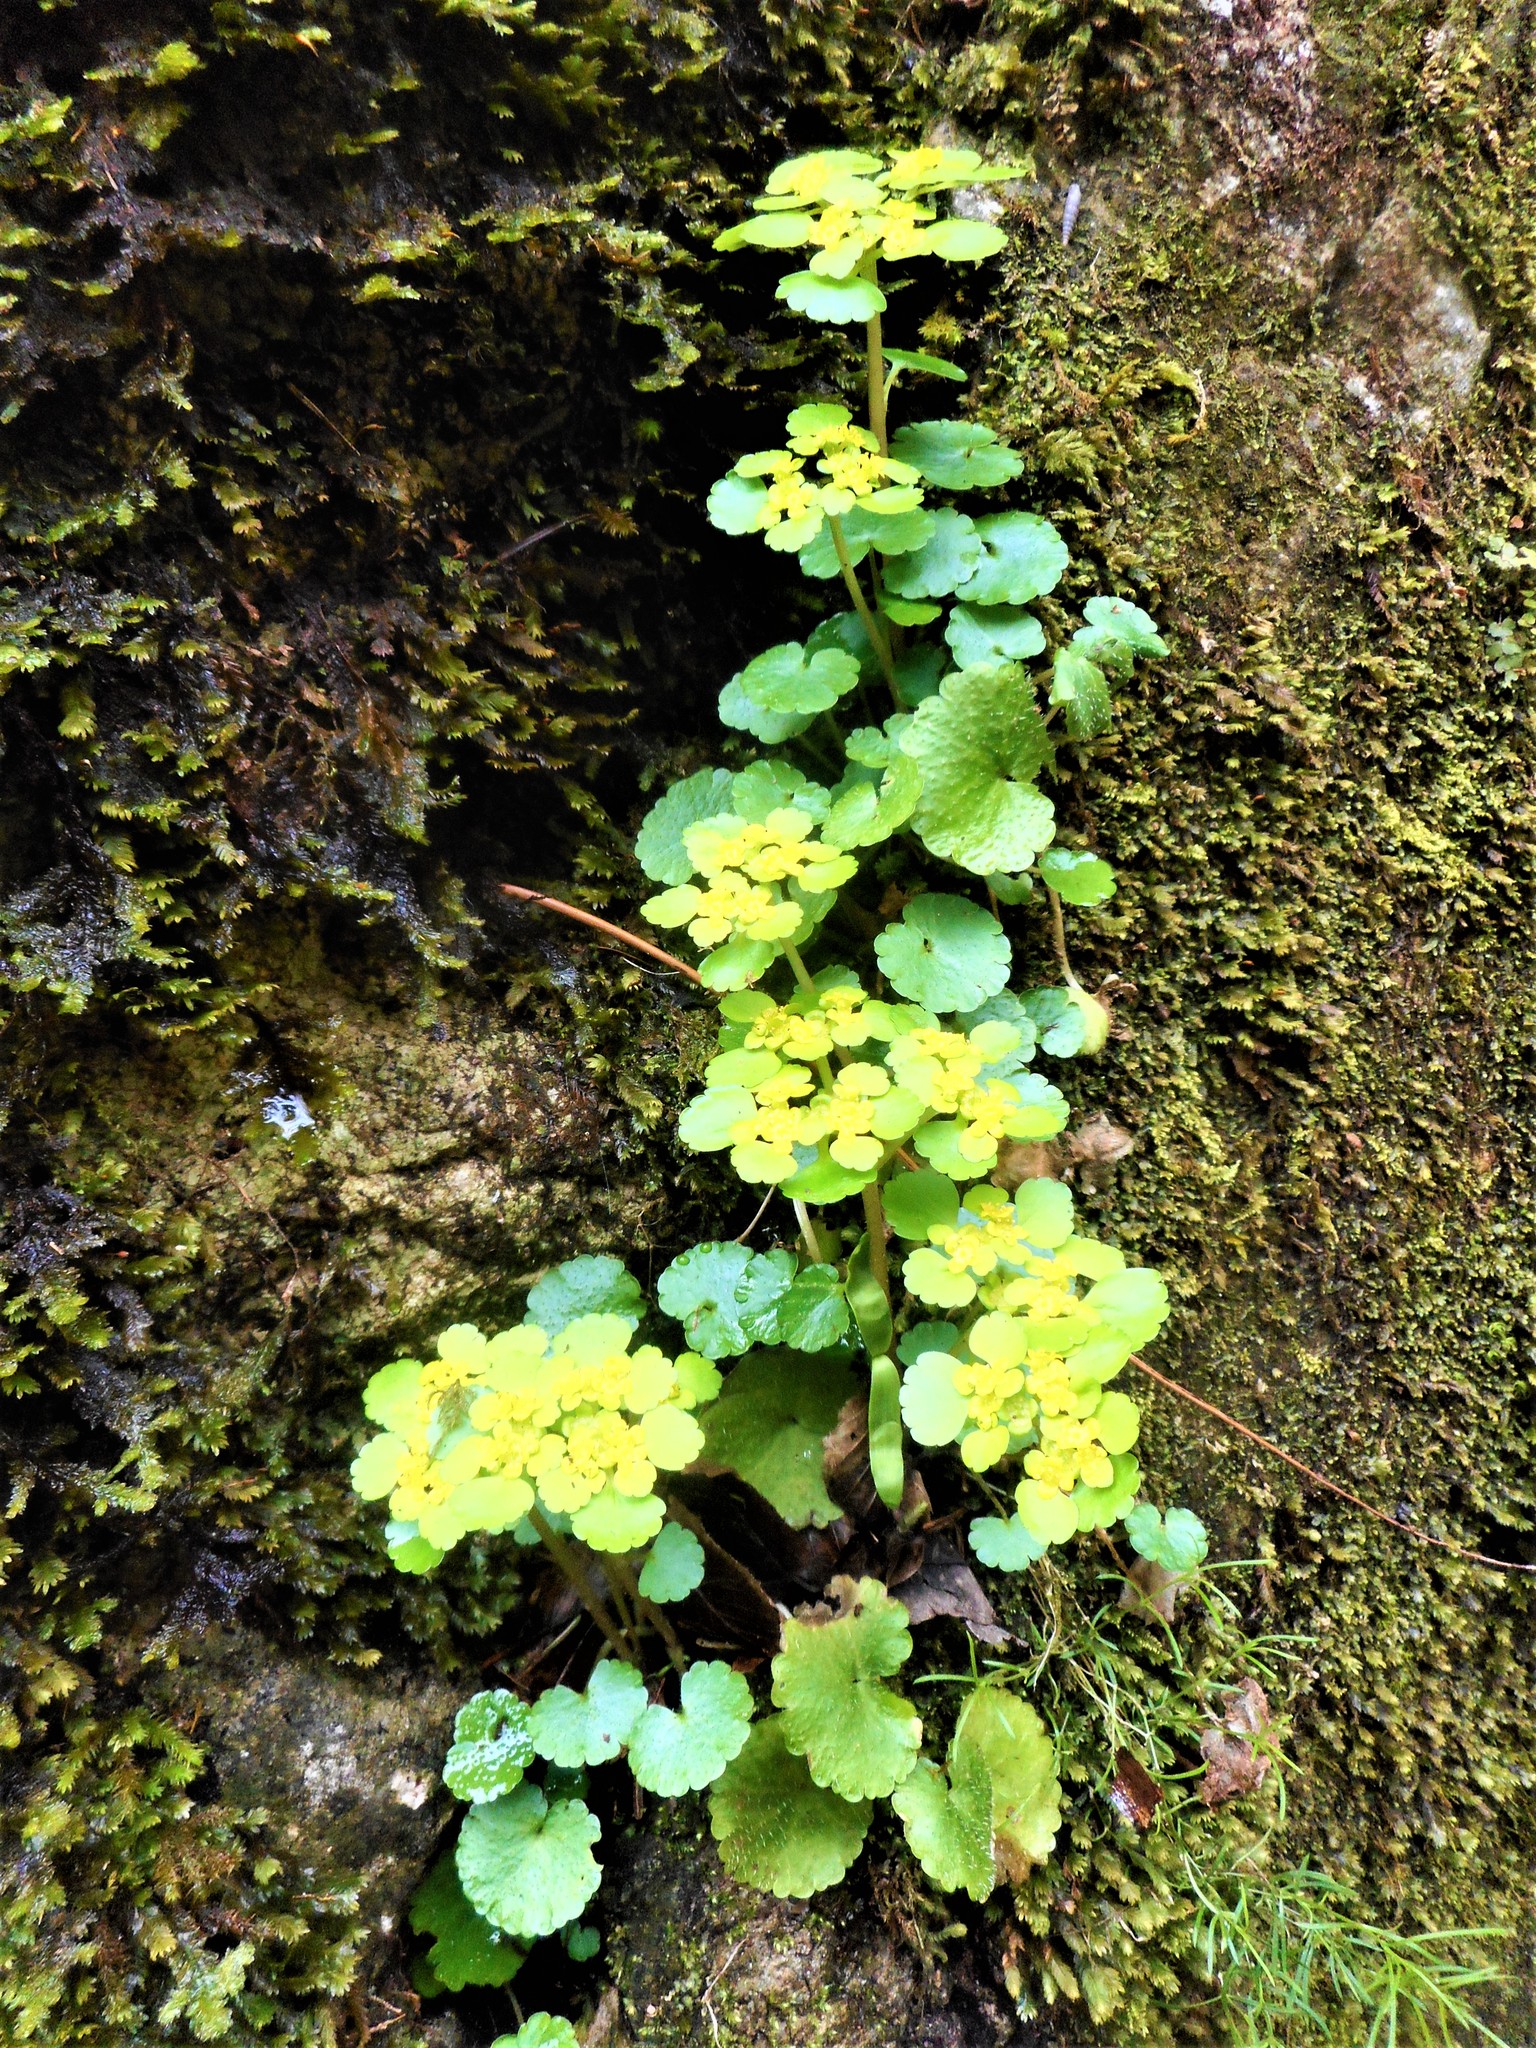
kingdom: Plantae
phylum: Tracheophyta
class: Magnoliopsida
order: Saxifragales
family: Saxifragaceae
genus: Chrysosplenium
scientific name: Chrysosplenium alternifolium
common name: Alternate-leaved golden-saxifrage
